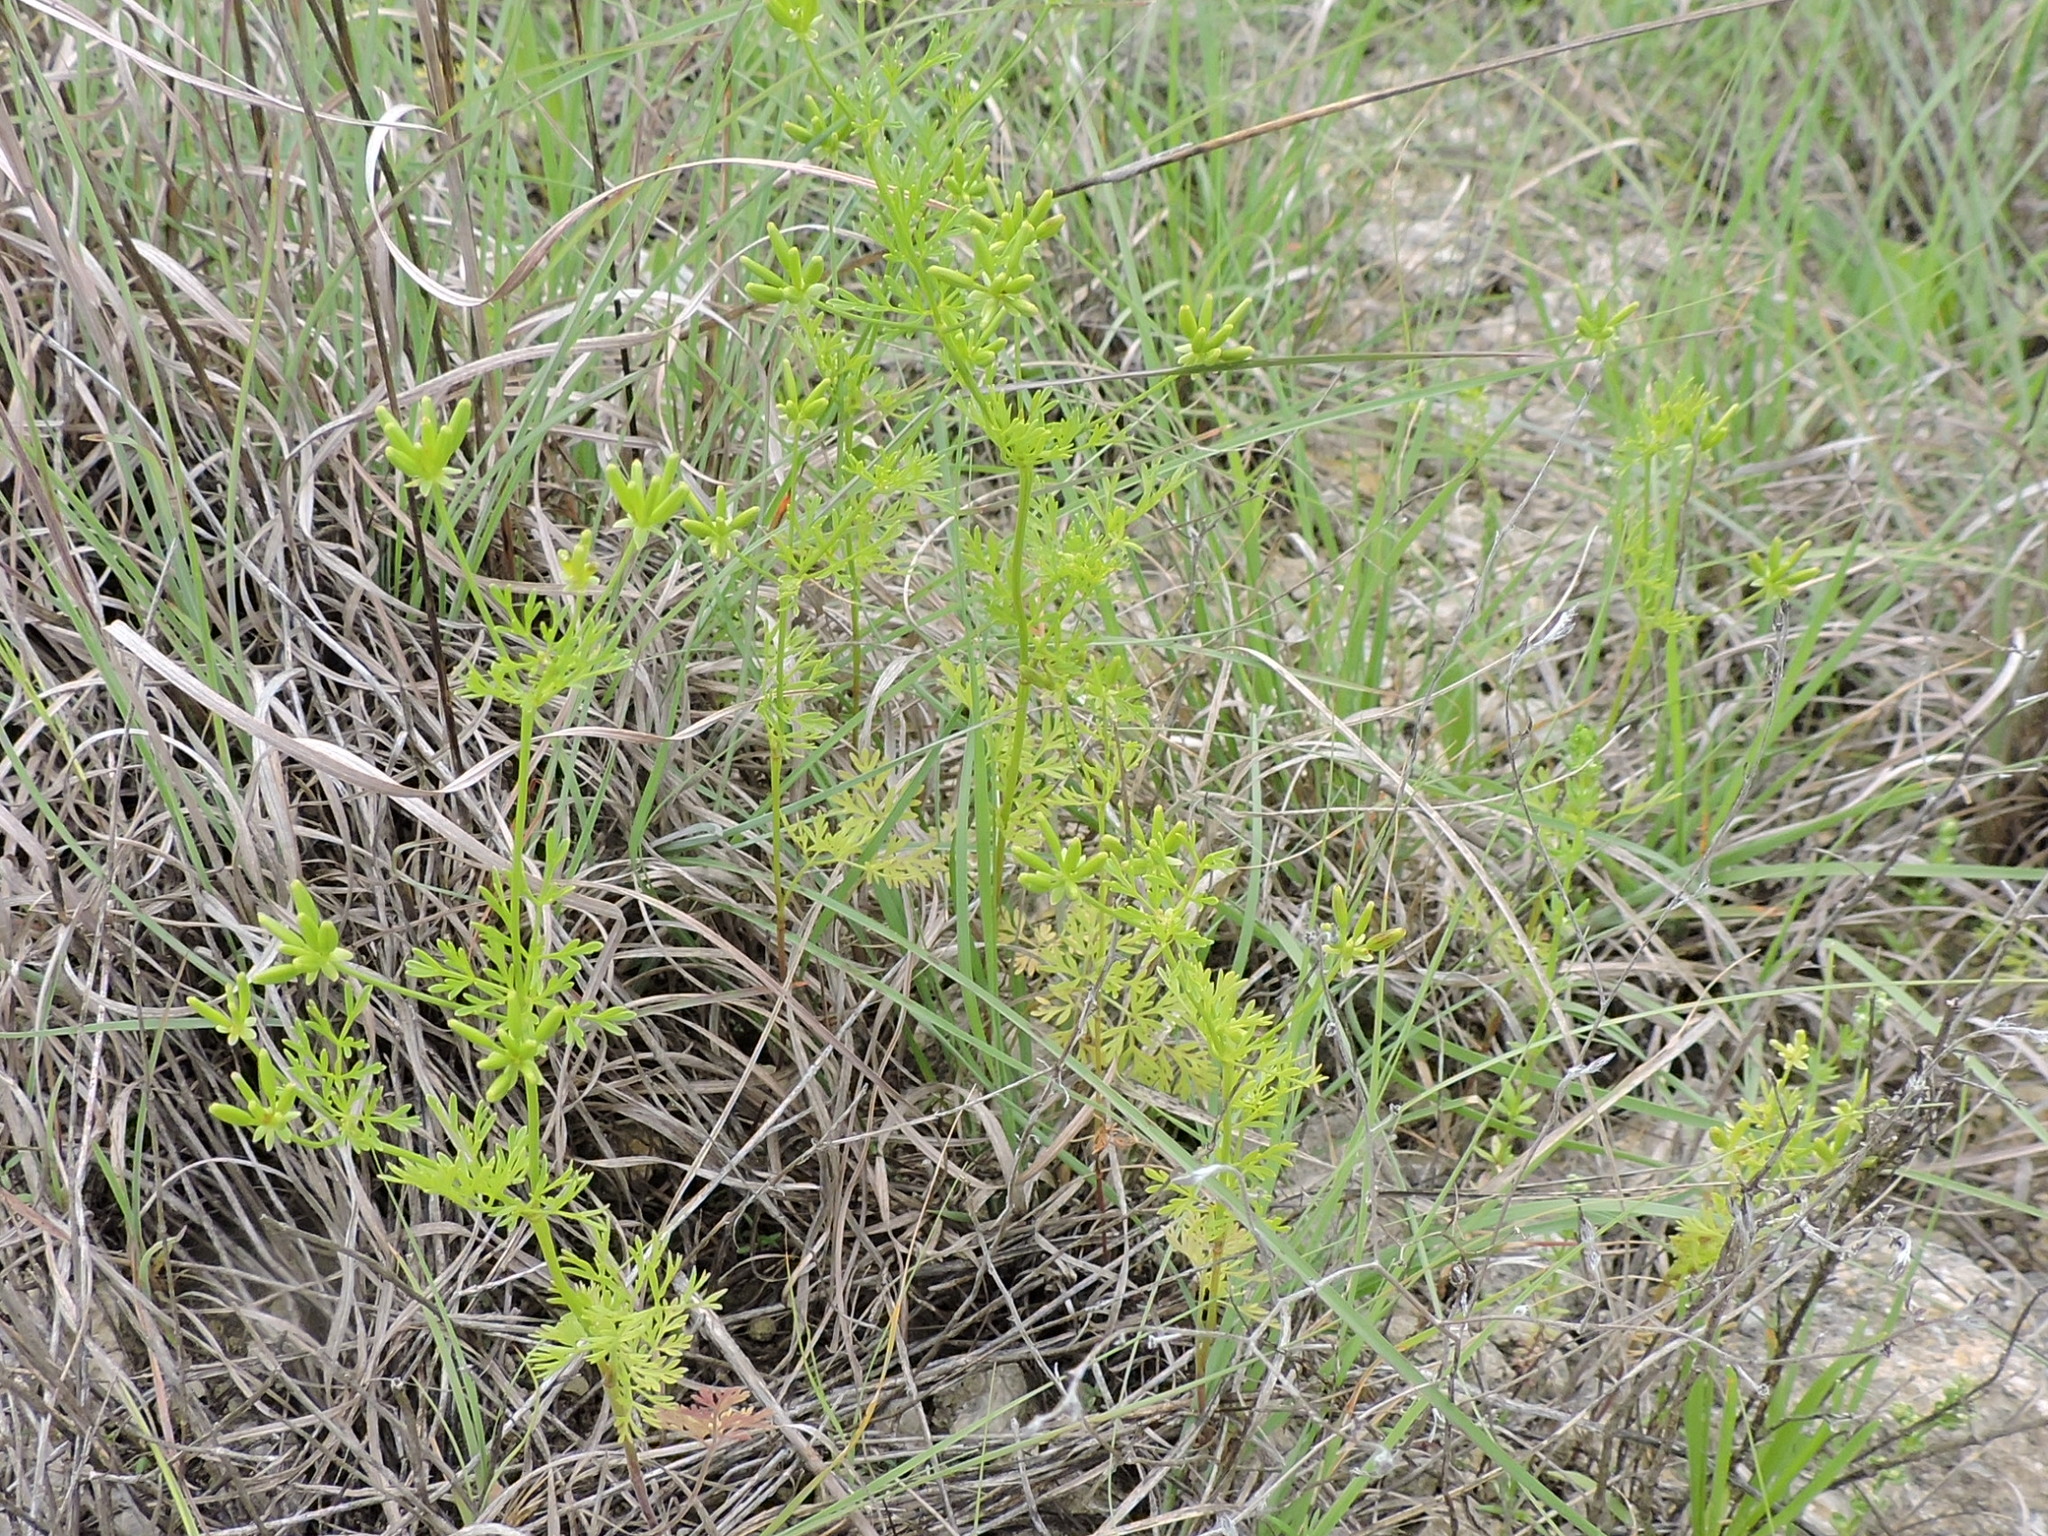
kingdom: Plantae
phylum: Tracheophyta
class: Magnoliopsida
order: Apiales
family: Apiaceae
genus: Chaerophyllum
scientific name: Chaerophyllum tainturieri
